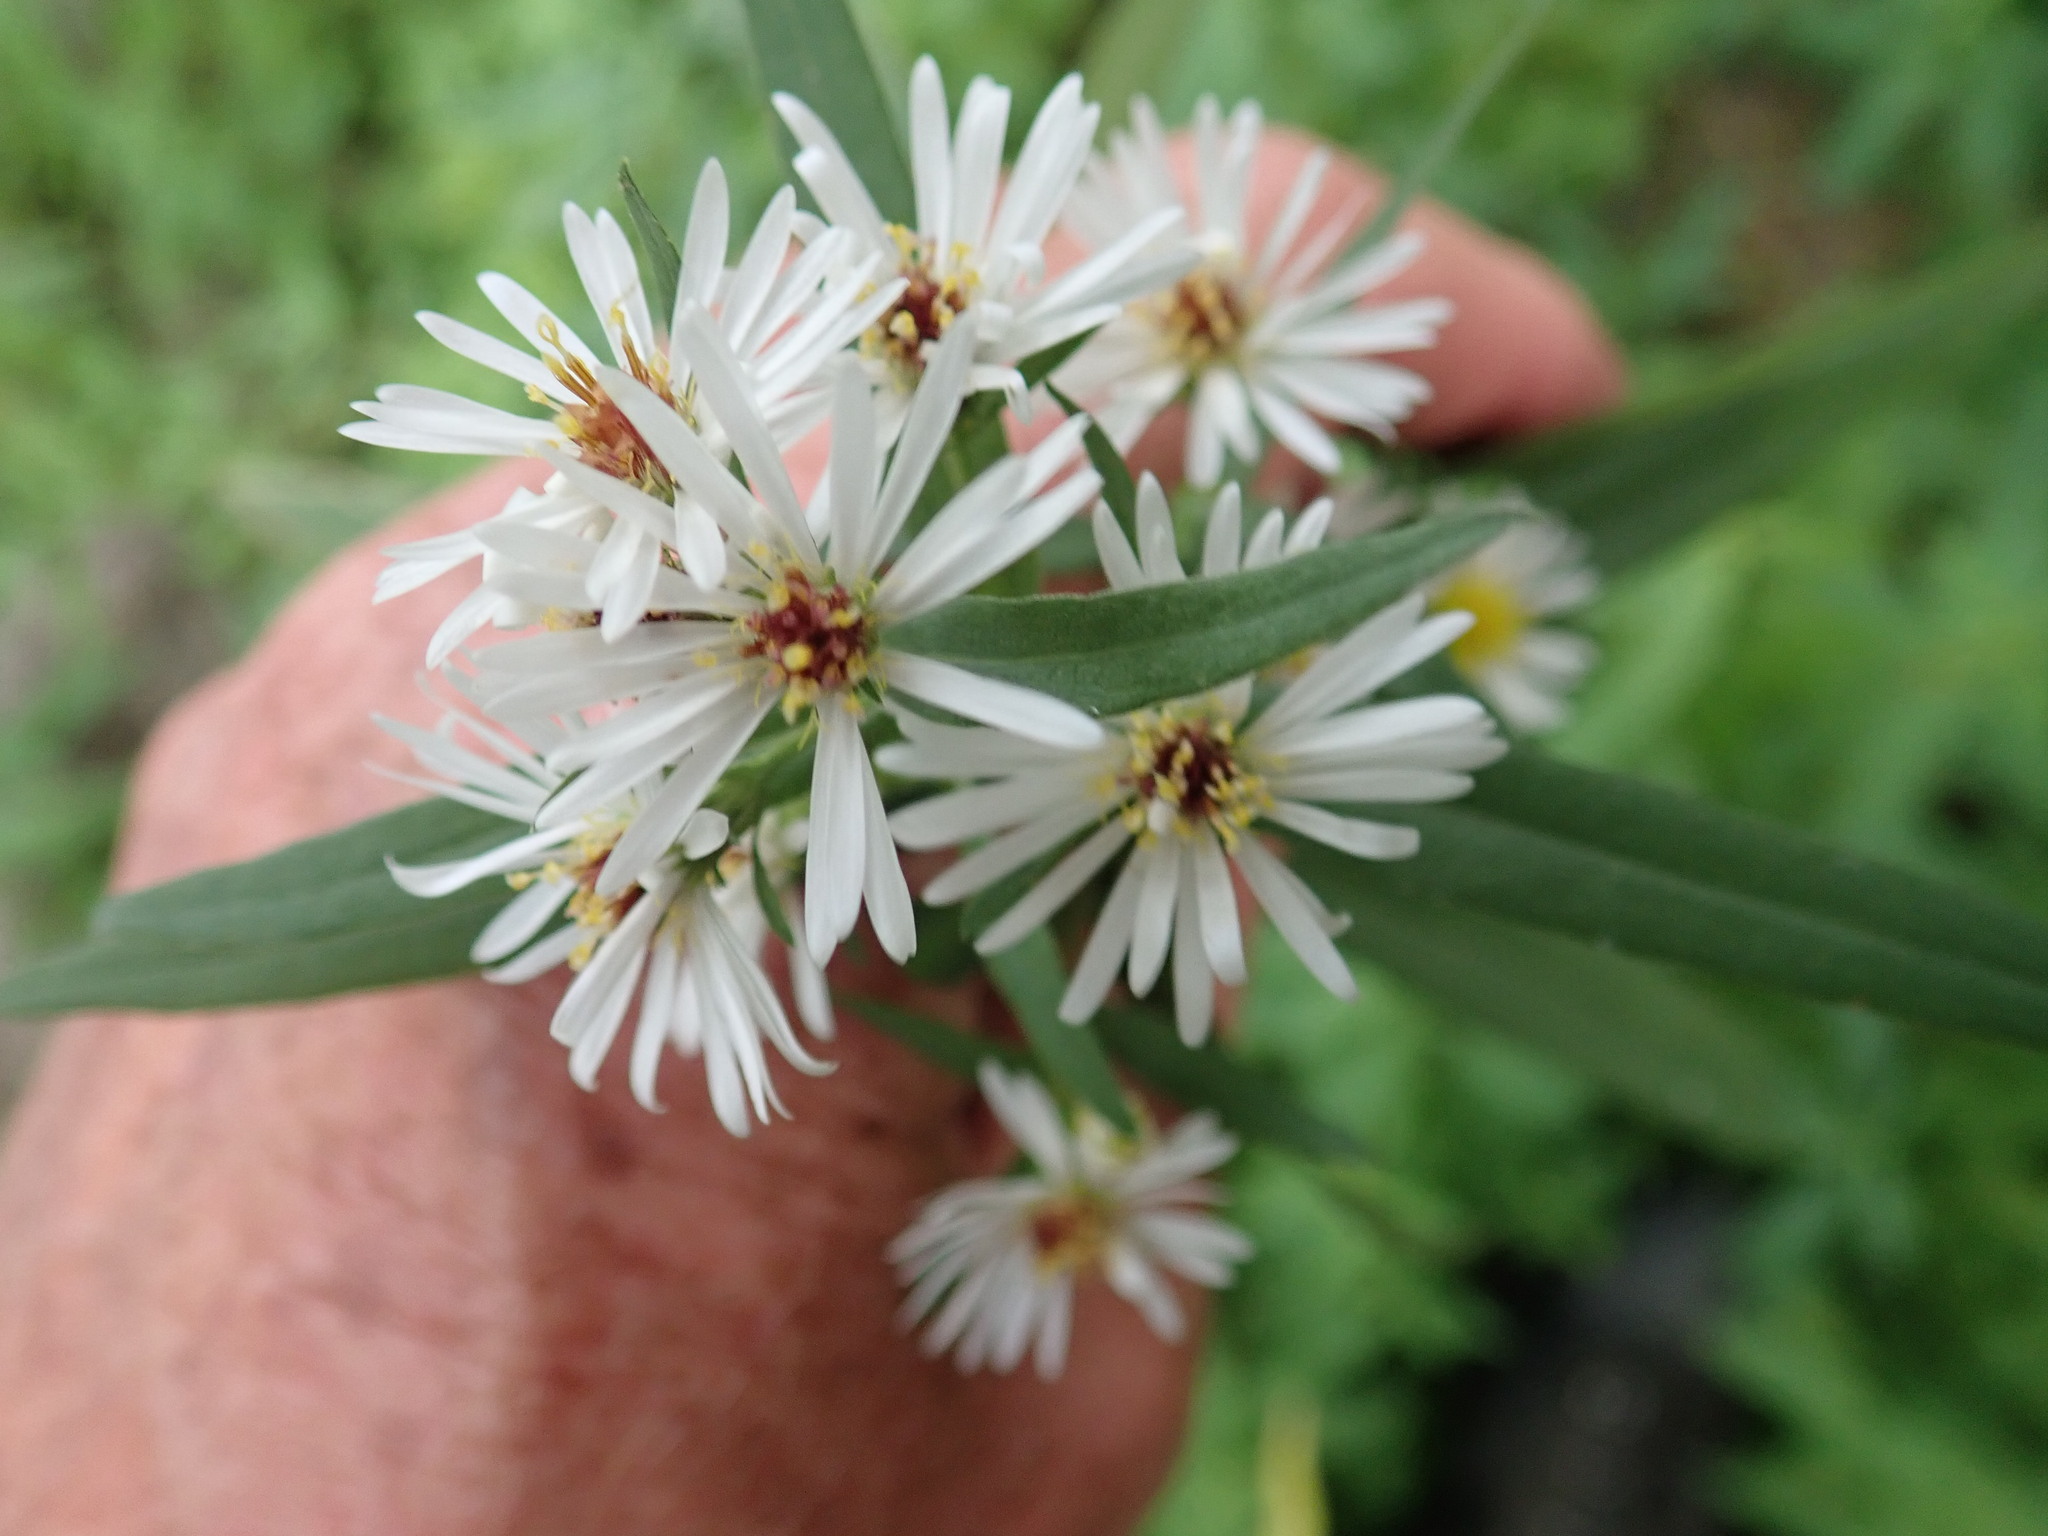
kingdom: Plantae
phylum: Tracheophyta
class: Magnoliopsida
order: Asterales
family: Asteraceae
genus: Symphyotrichum
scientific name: Symphyotrichum lanceolatum
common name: Panicled aster
